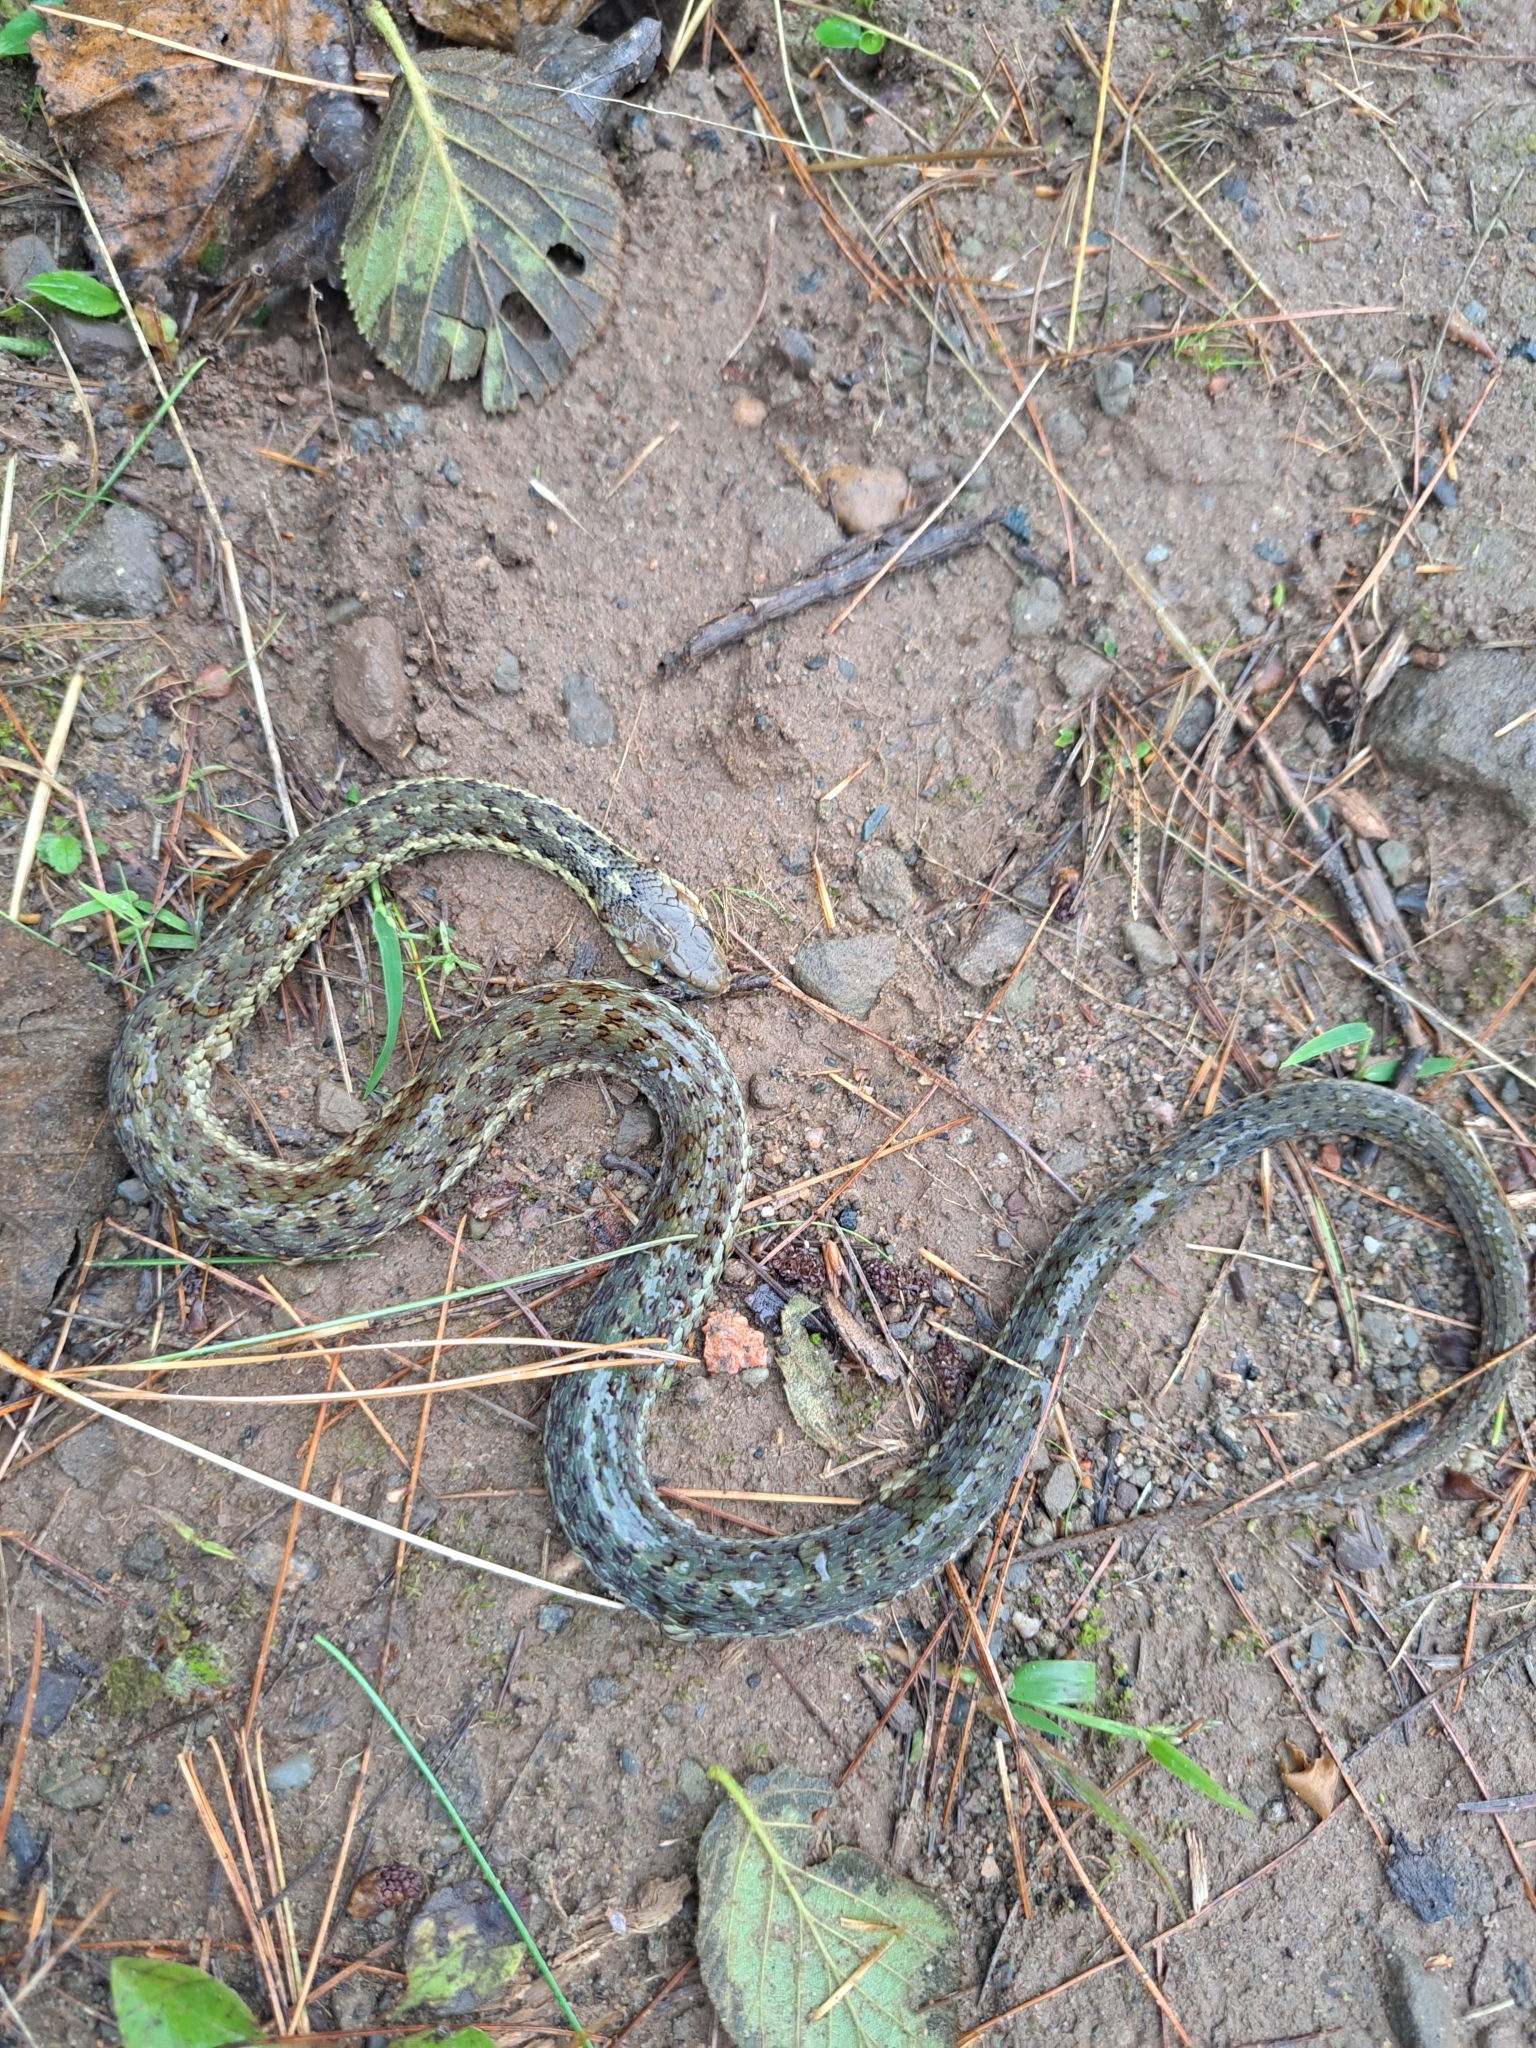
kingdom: Animalia
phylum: Chordata
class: Squamata
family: Colubridae
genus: Thamnophis
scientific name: Thamnophis sirtalis
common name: Common garter snake
